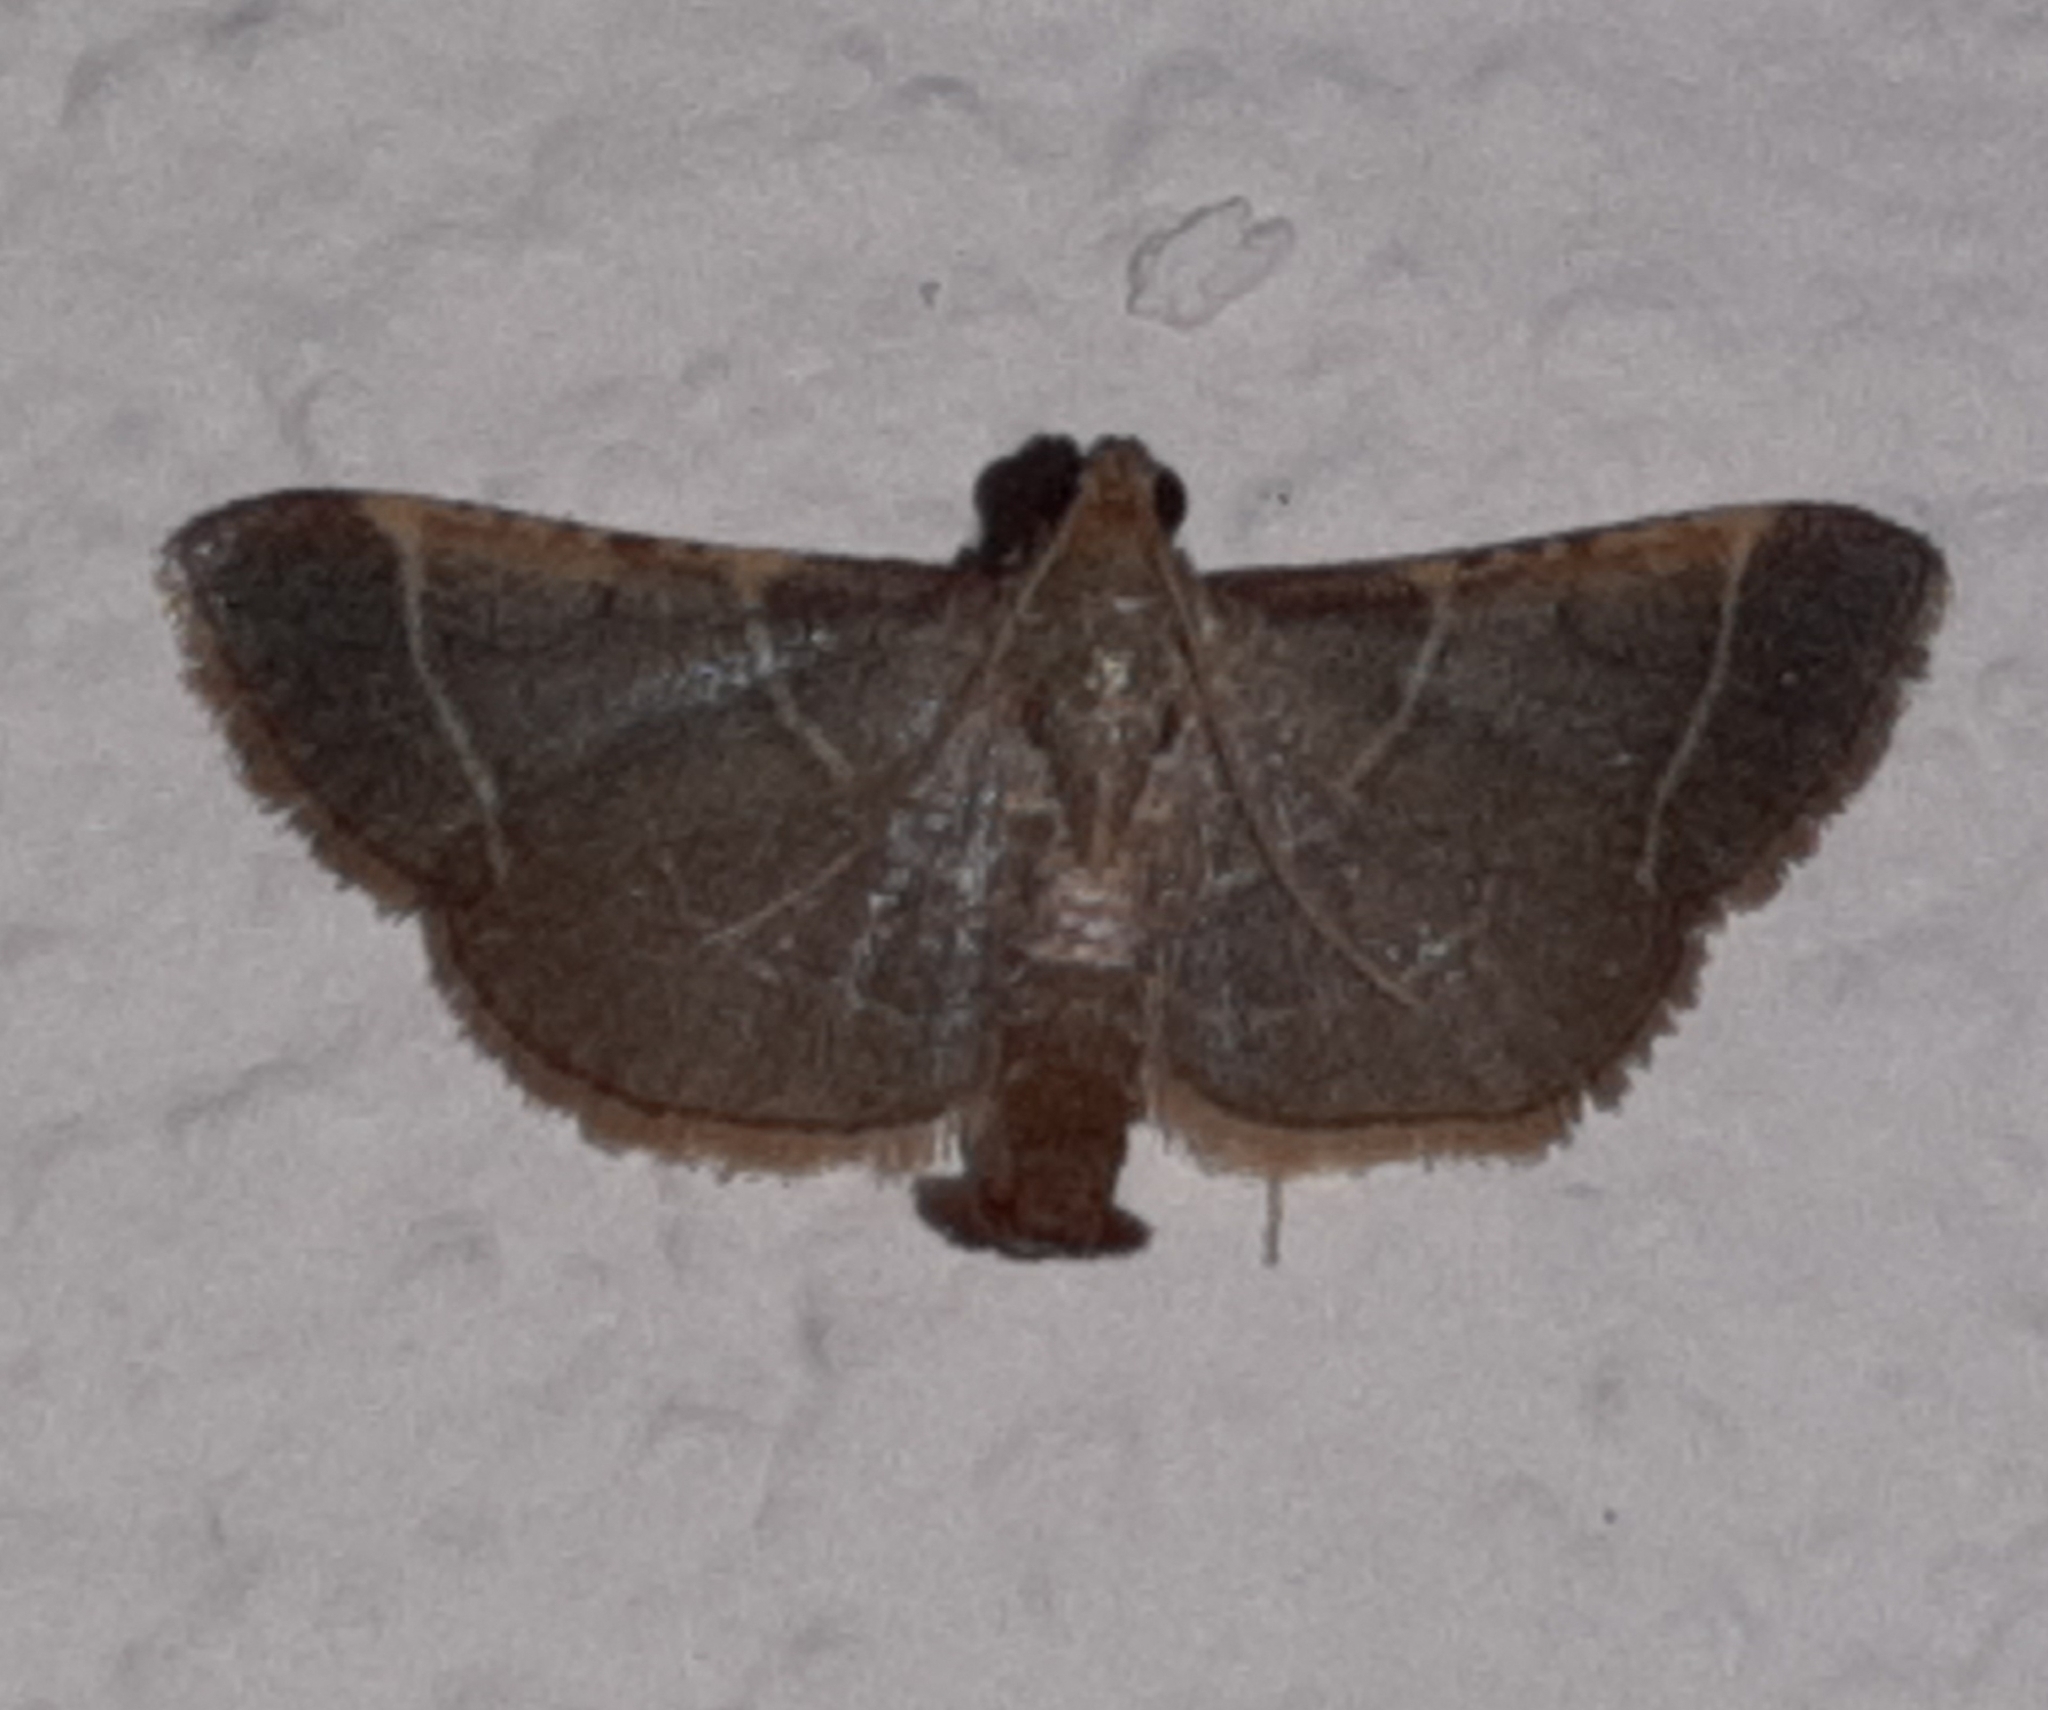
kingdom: Animalia
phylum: Arthropoda
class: Insecta
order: Lepidoptera
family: Pyralidae
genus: Hypsopygia
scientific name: Hypsopygia amoenalis
